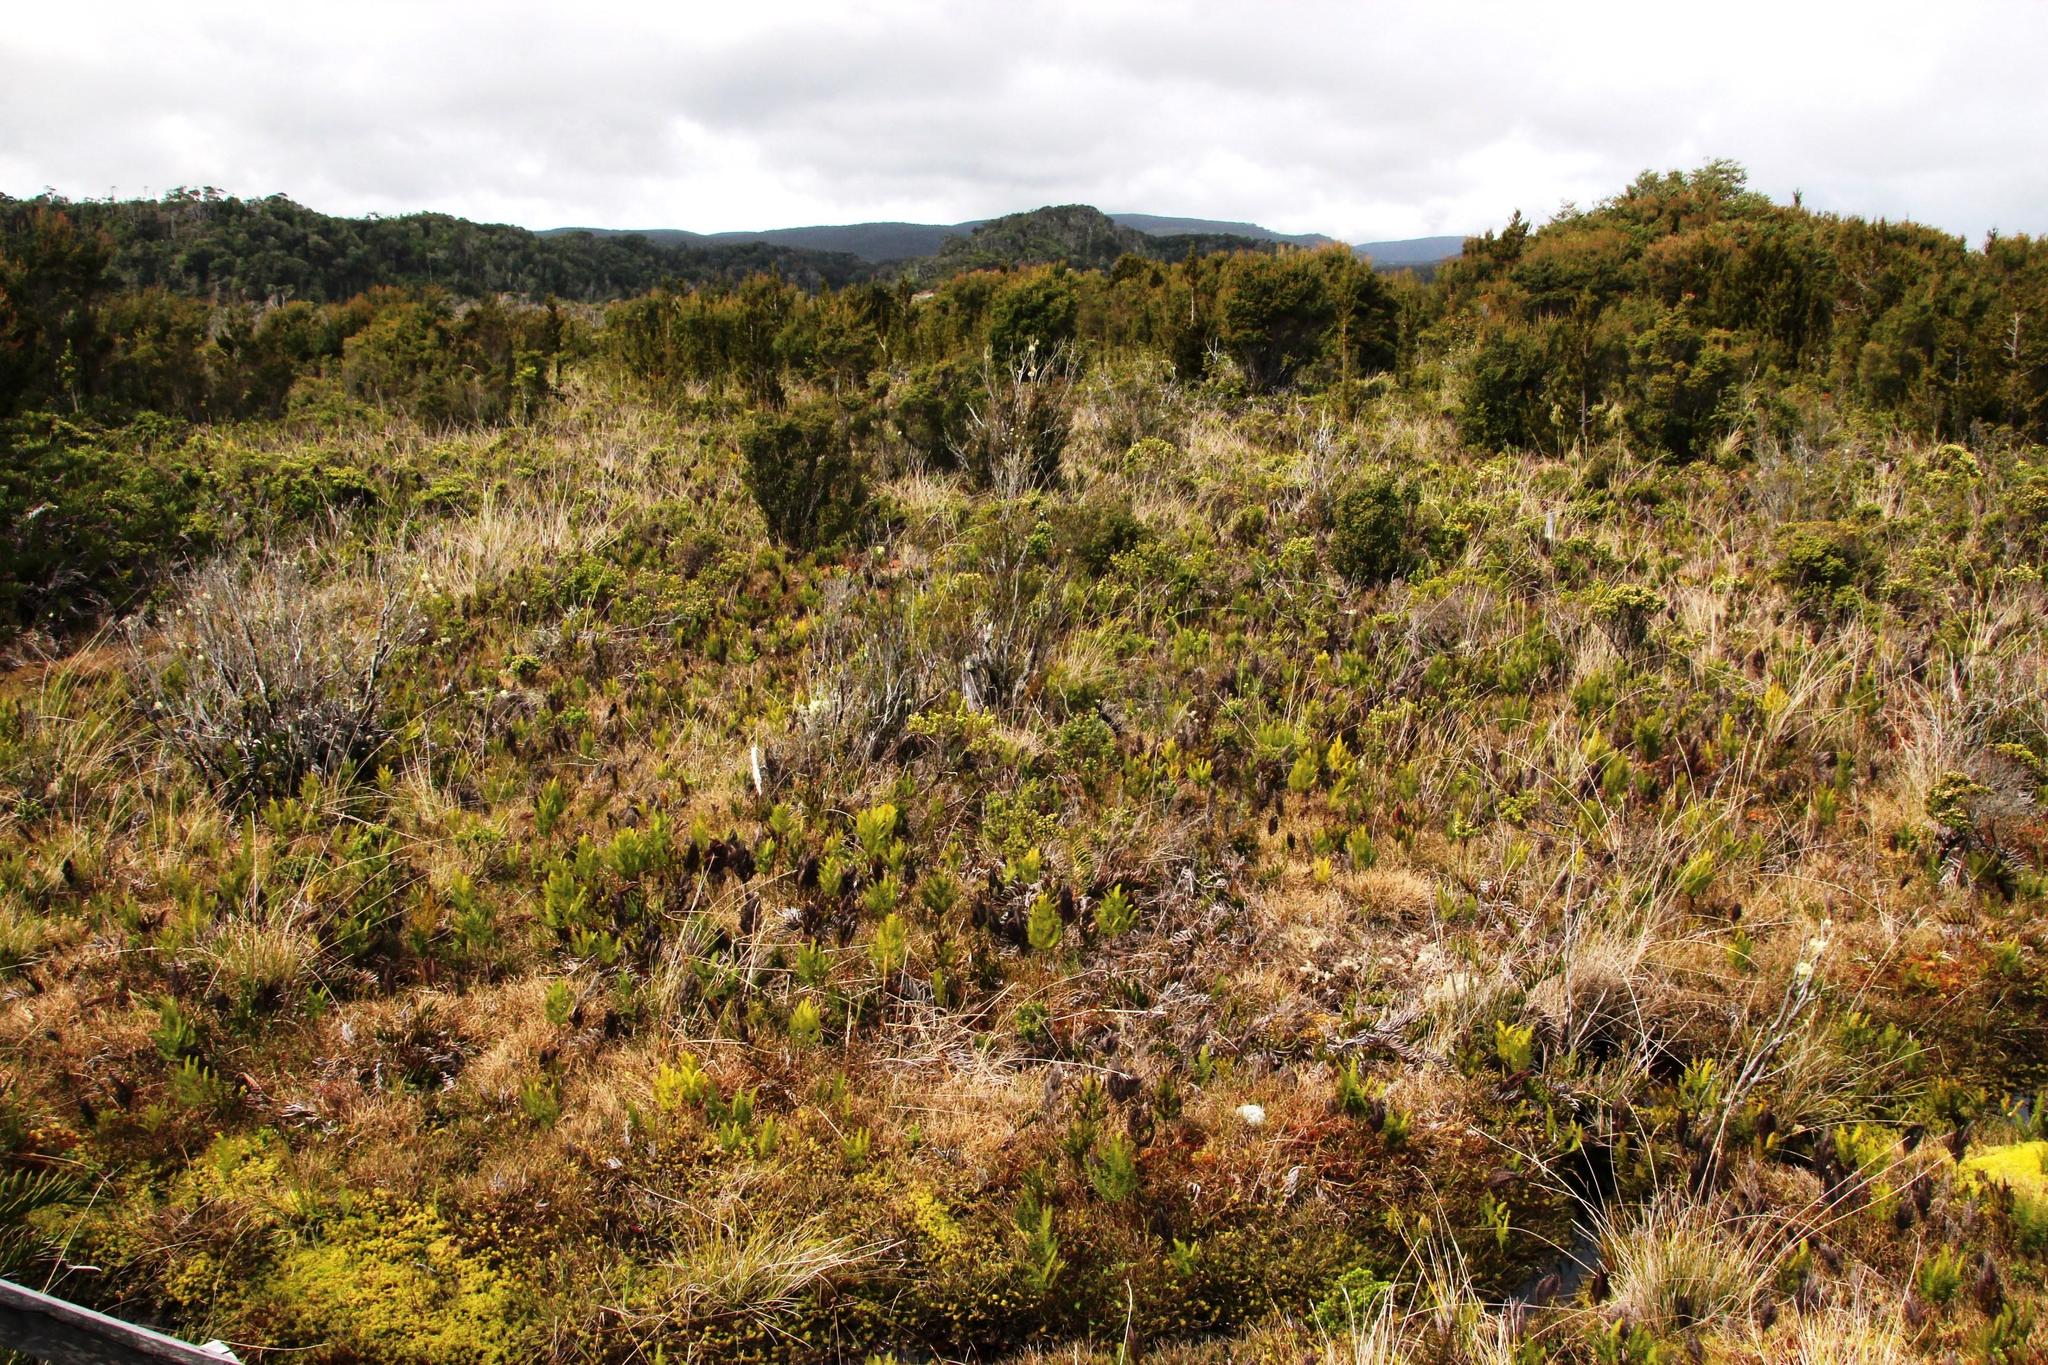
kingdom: Plantae
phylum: Tracheophyta
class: Polypodiopsida
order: Gleicheniales
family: Gleicheniaceae
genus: Sticherus
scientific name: Sticherus cryptocarpus
